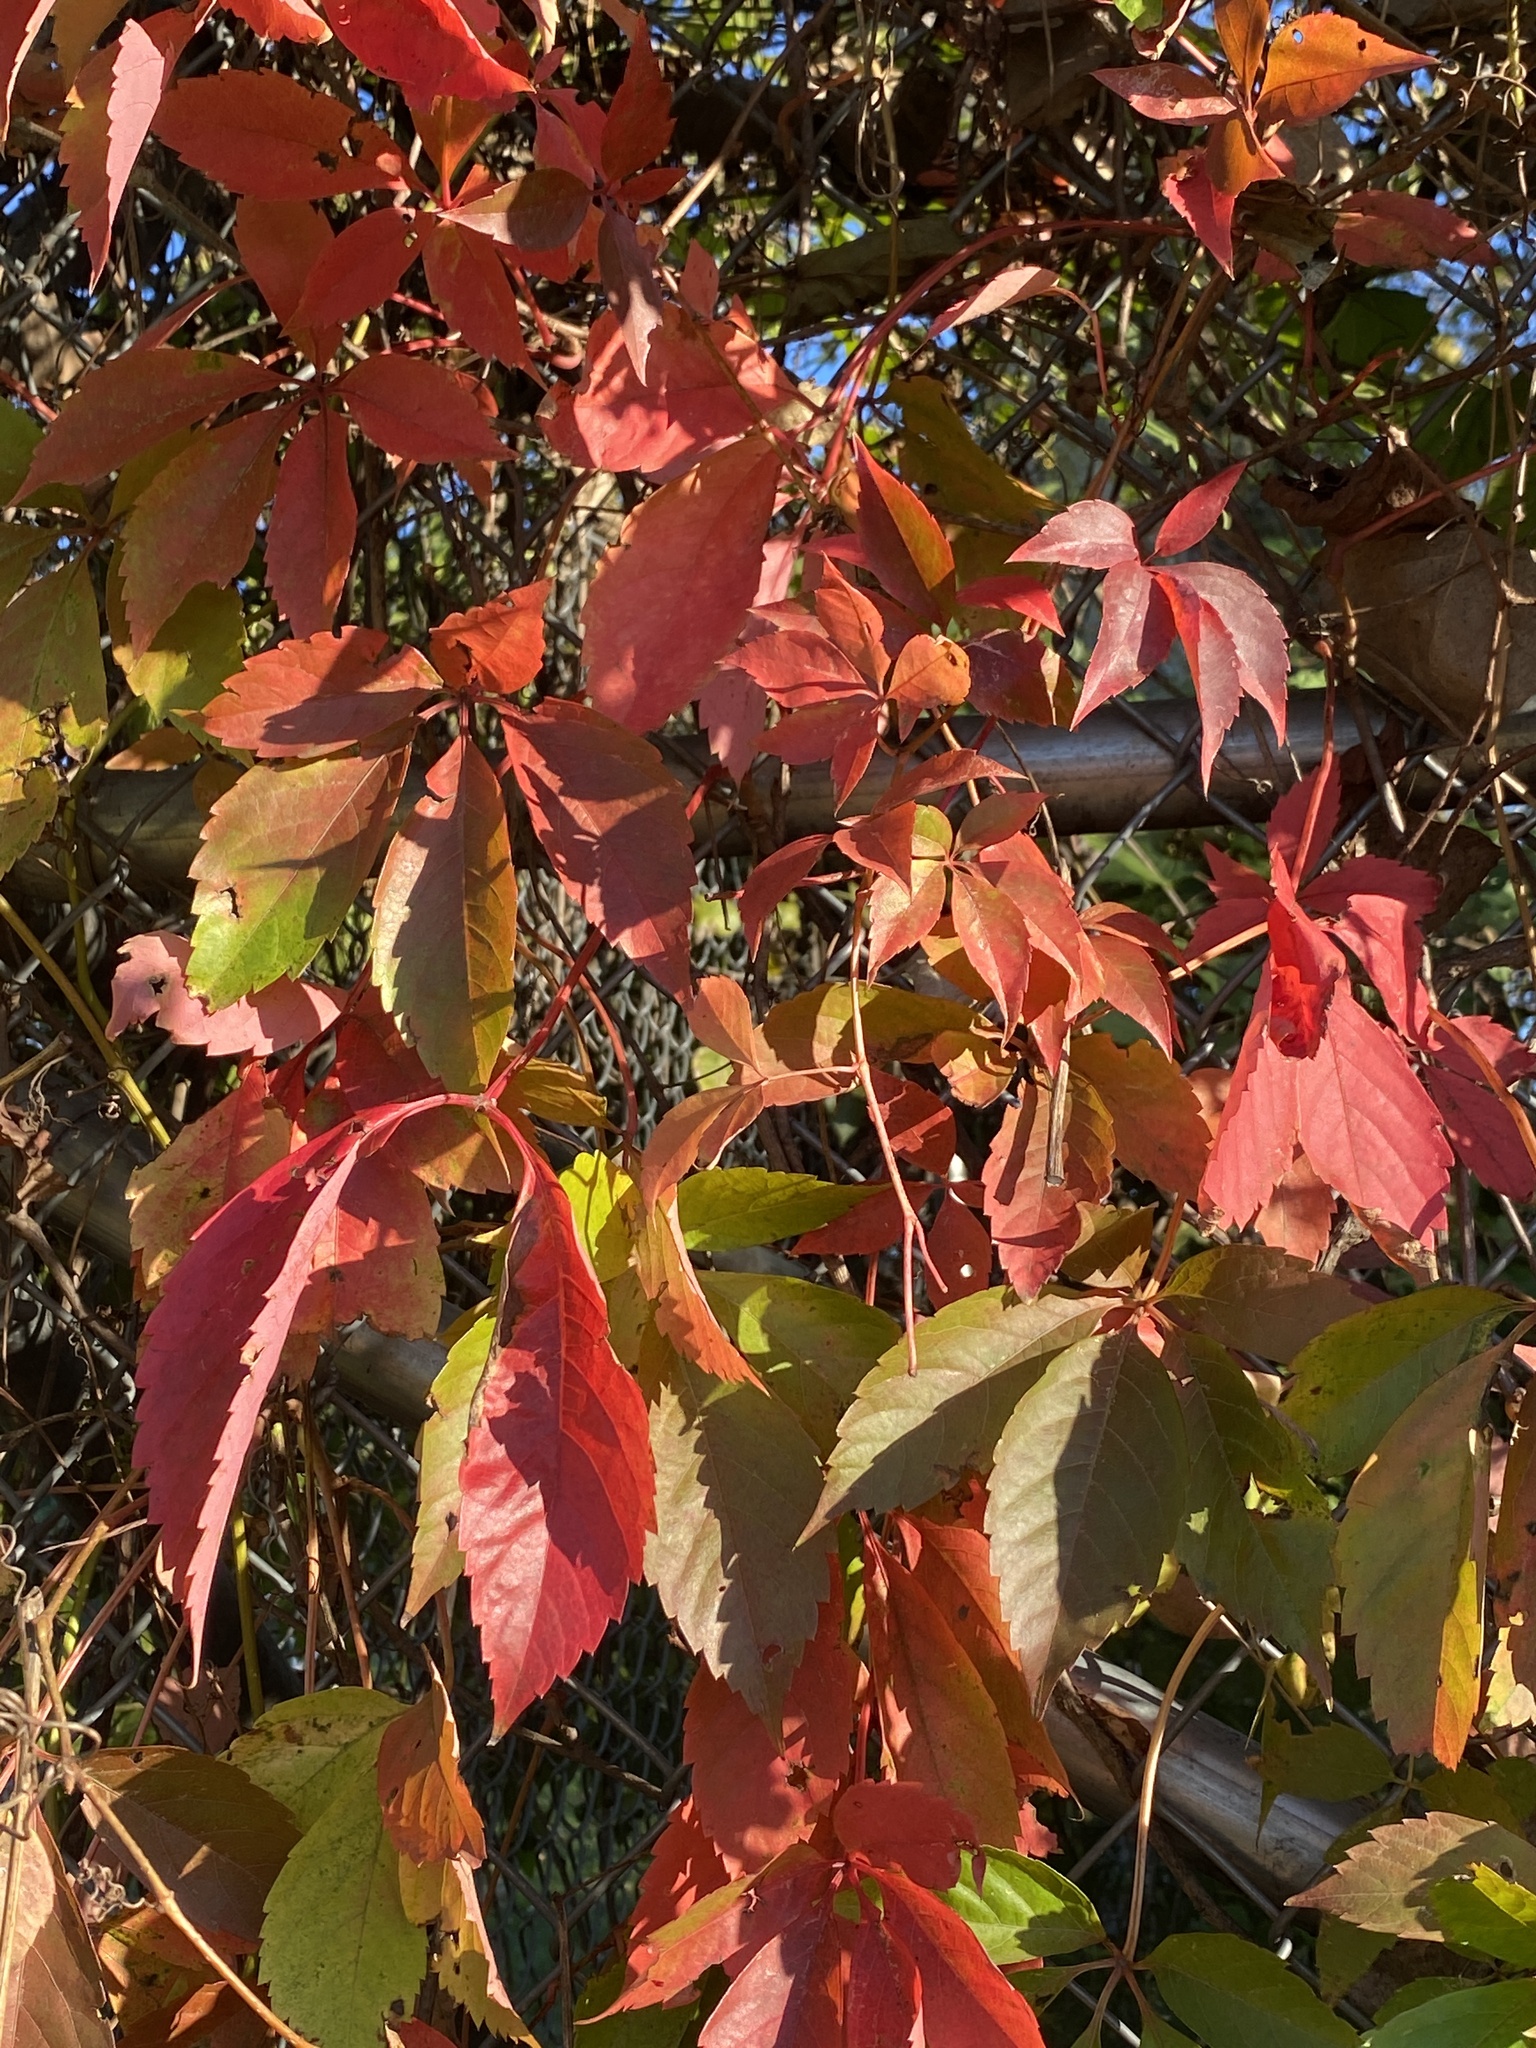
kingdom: Plantae
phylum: Tracheophyta
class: Magnoliopsida
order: Vitales
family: Vitaceae
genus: Parthenocissus
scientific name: Parthenocissus quinquefolia
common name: Virginia-creeper
